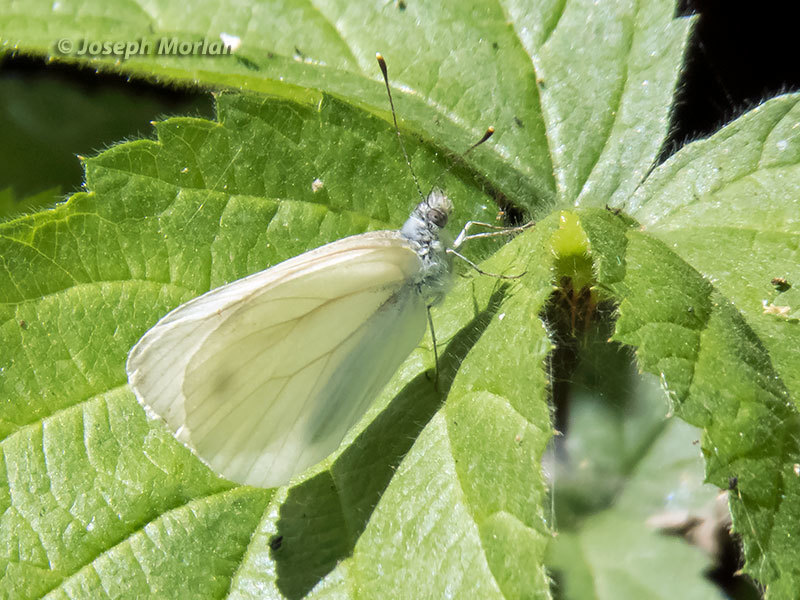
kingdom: Animalia
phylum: Arthropoda
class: Insecta
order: Lepidoptera
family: Pieridae
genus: Pieris
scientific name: Pieris marginalis
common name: Margined white
